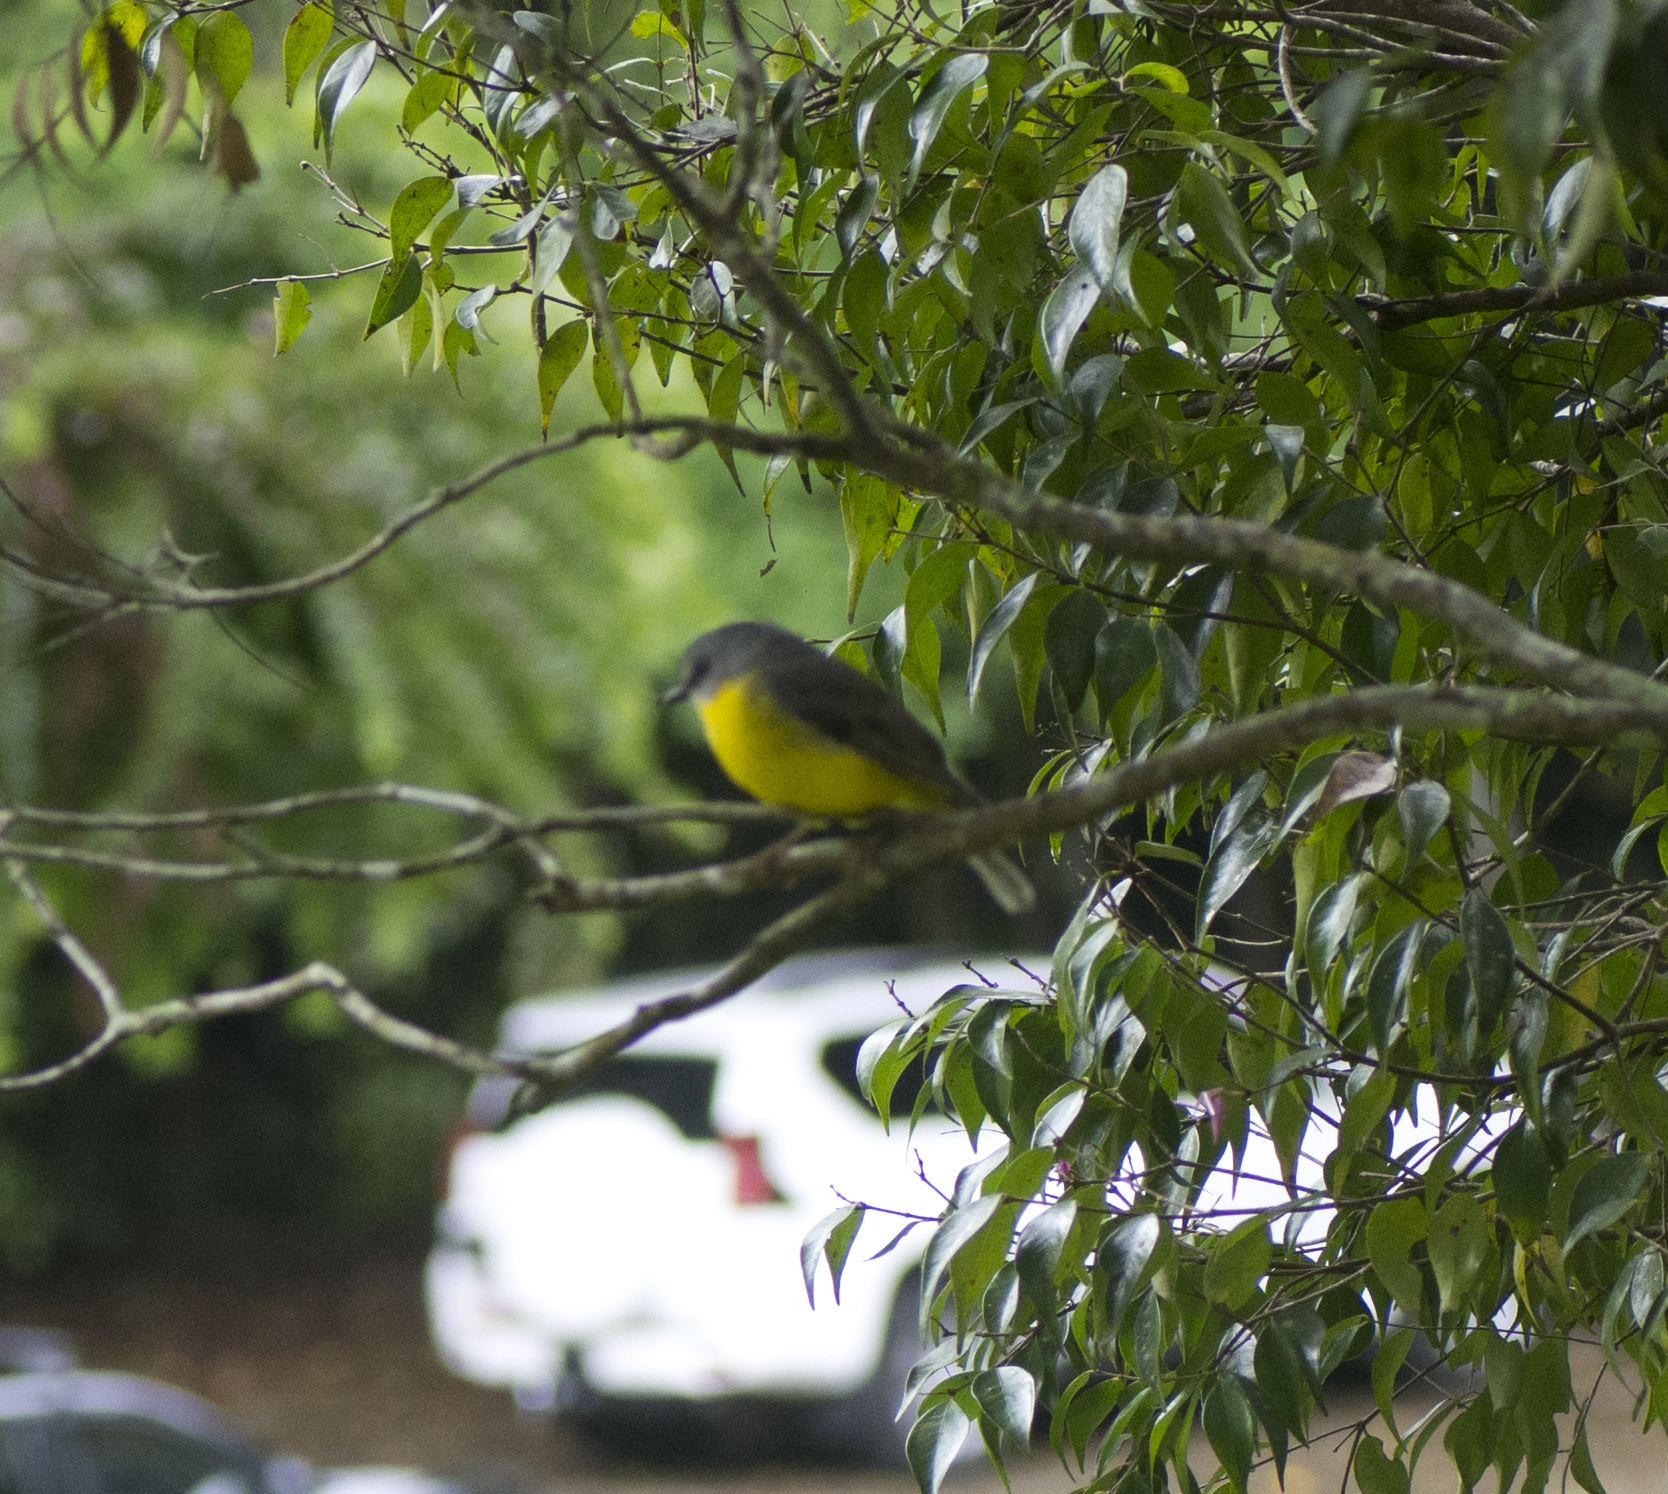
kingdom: Animalia
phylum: Chordata
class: Aves
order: Passeriformes
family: Petroicidae
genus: Eopsaltria
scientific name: Eopsaltria australis
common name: Eastern yellow robin
